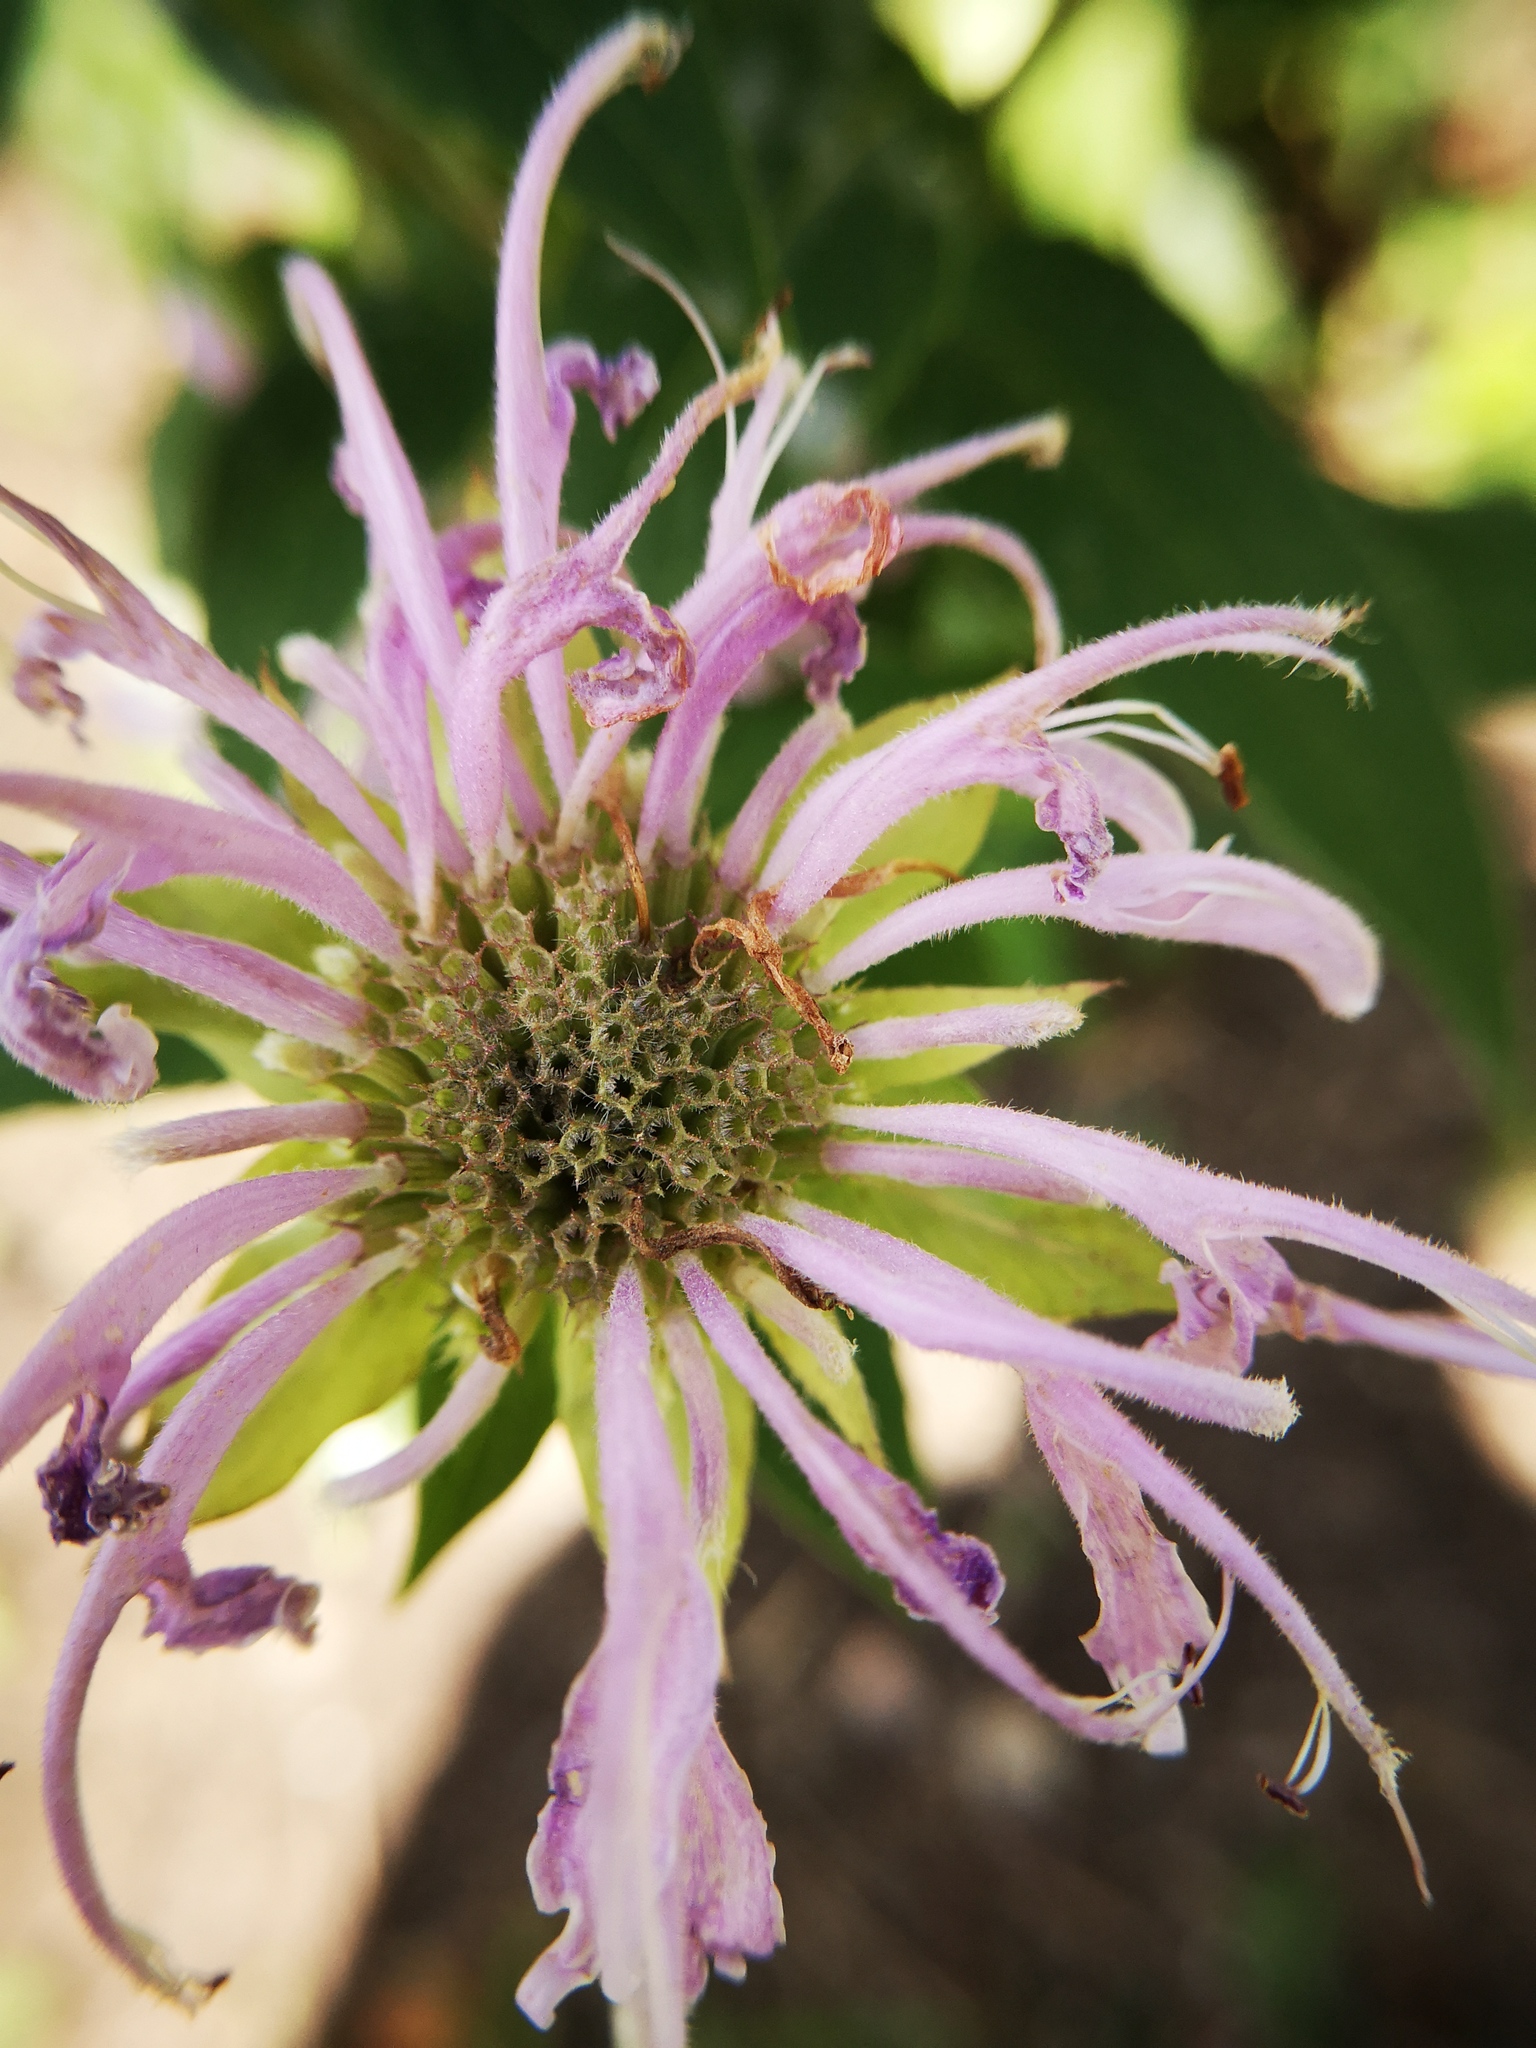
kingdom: Plantae
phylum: Tracheophyta
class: Magnoliopsida
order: Lamiales
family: Lamiaceae
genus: Monarda
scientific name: Monarda fistulosa
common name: Purple beebalm
